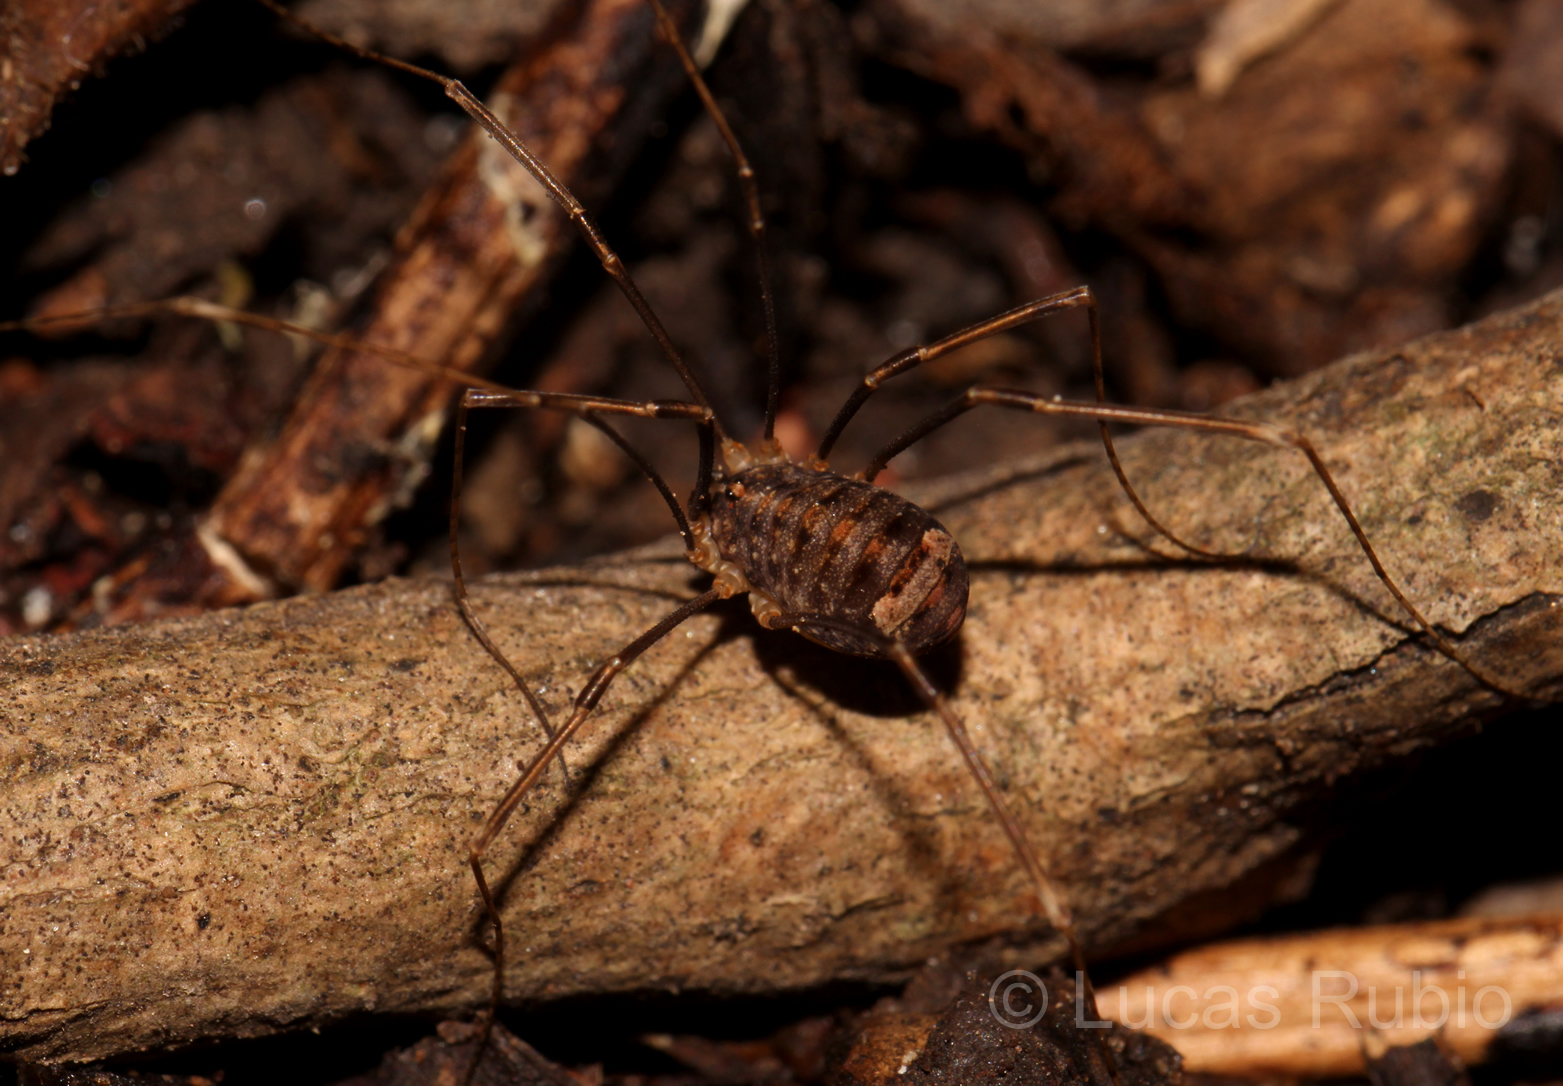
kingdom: Animalia
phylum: Arthropoda
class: Arachnida
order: Opiliones
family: Sclerosomatidae
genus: Nelima
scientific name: Nelima doriae
